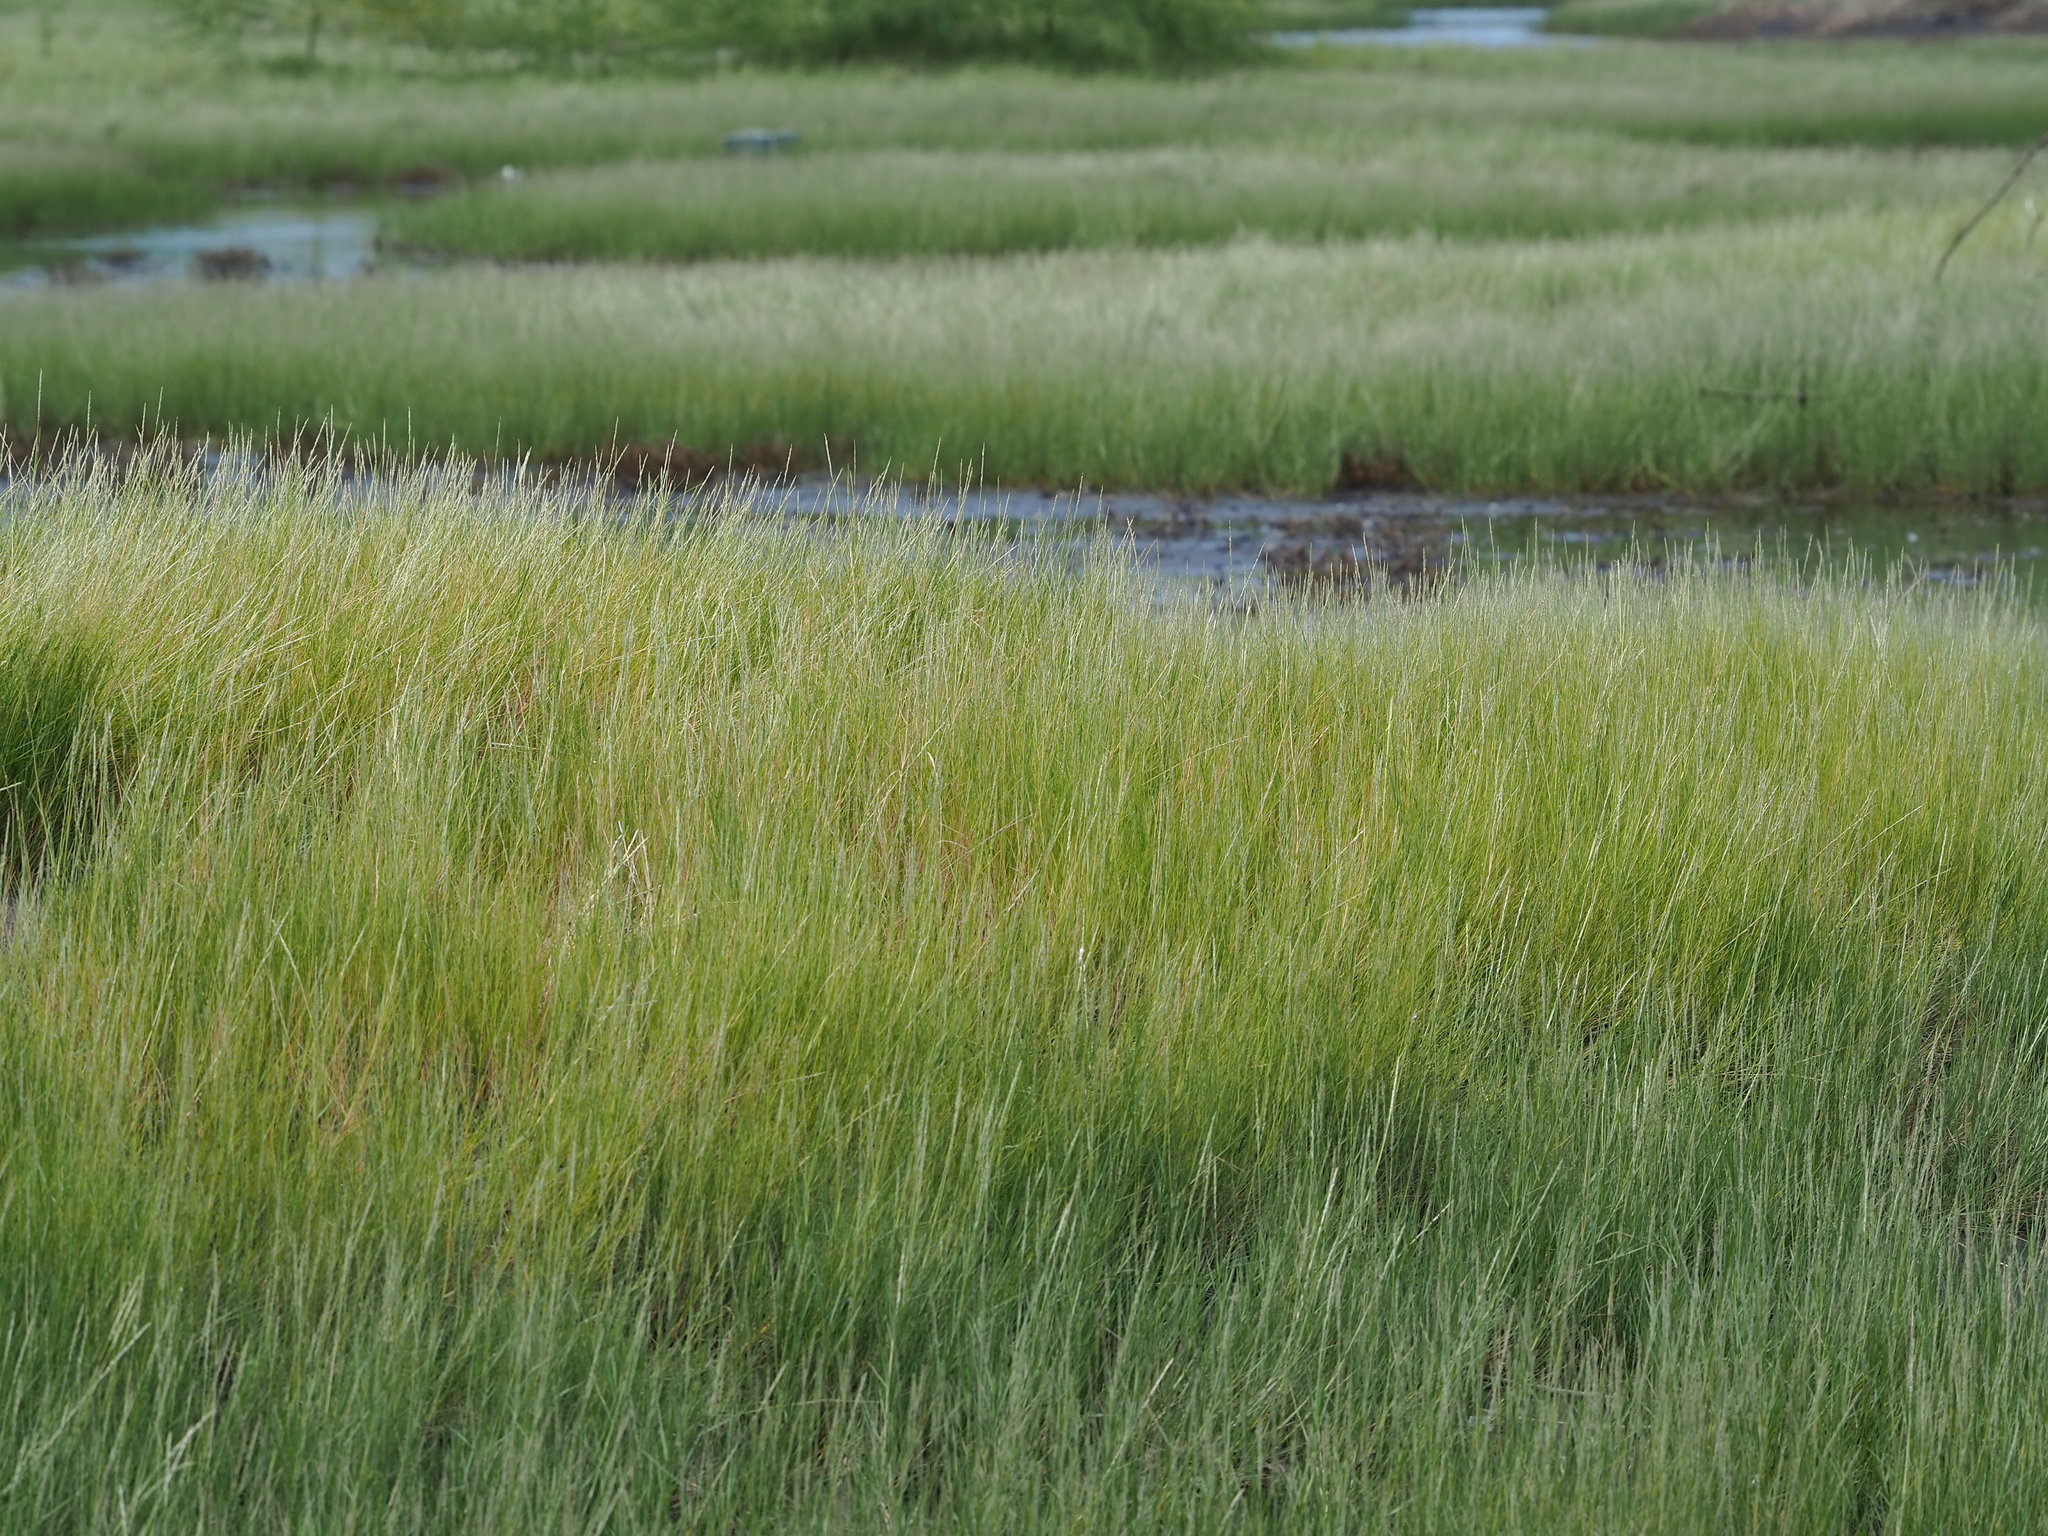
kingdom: Plantae
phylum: Tracheophyta
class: Liliopsida
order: Poales
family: Poaceae
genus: Sporobolus
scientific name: Sporobolus virginicus
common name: Beach dropseed
